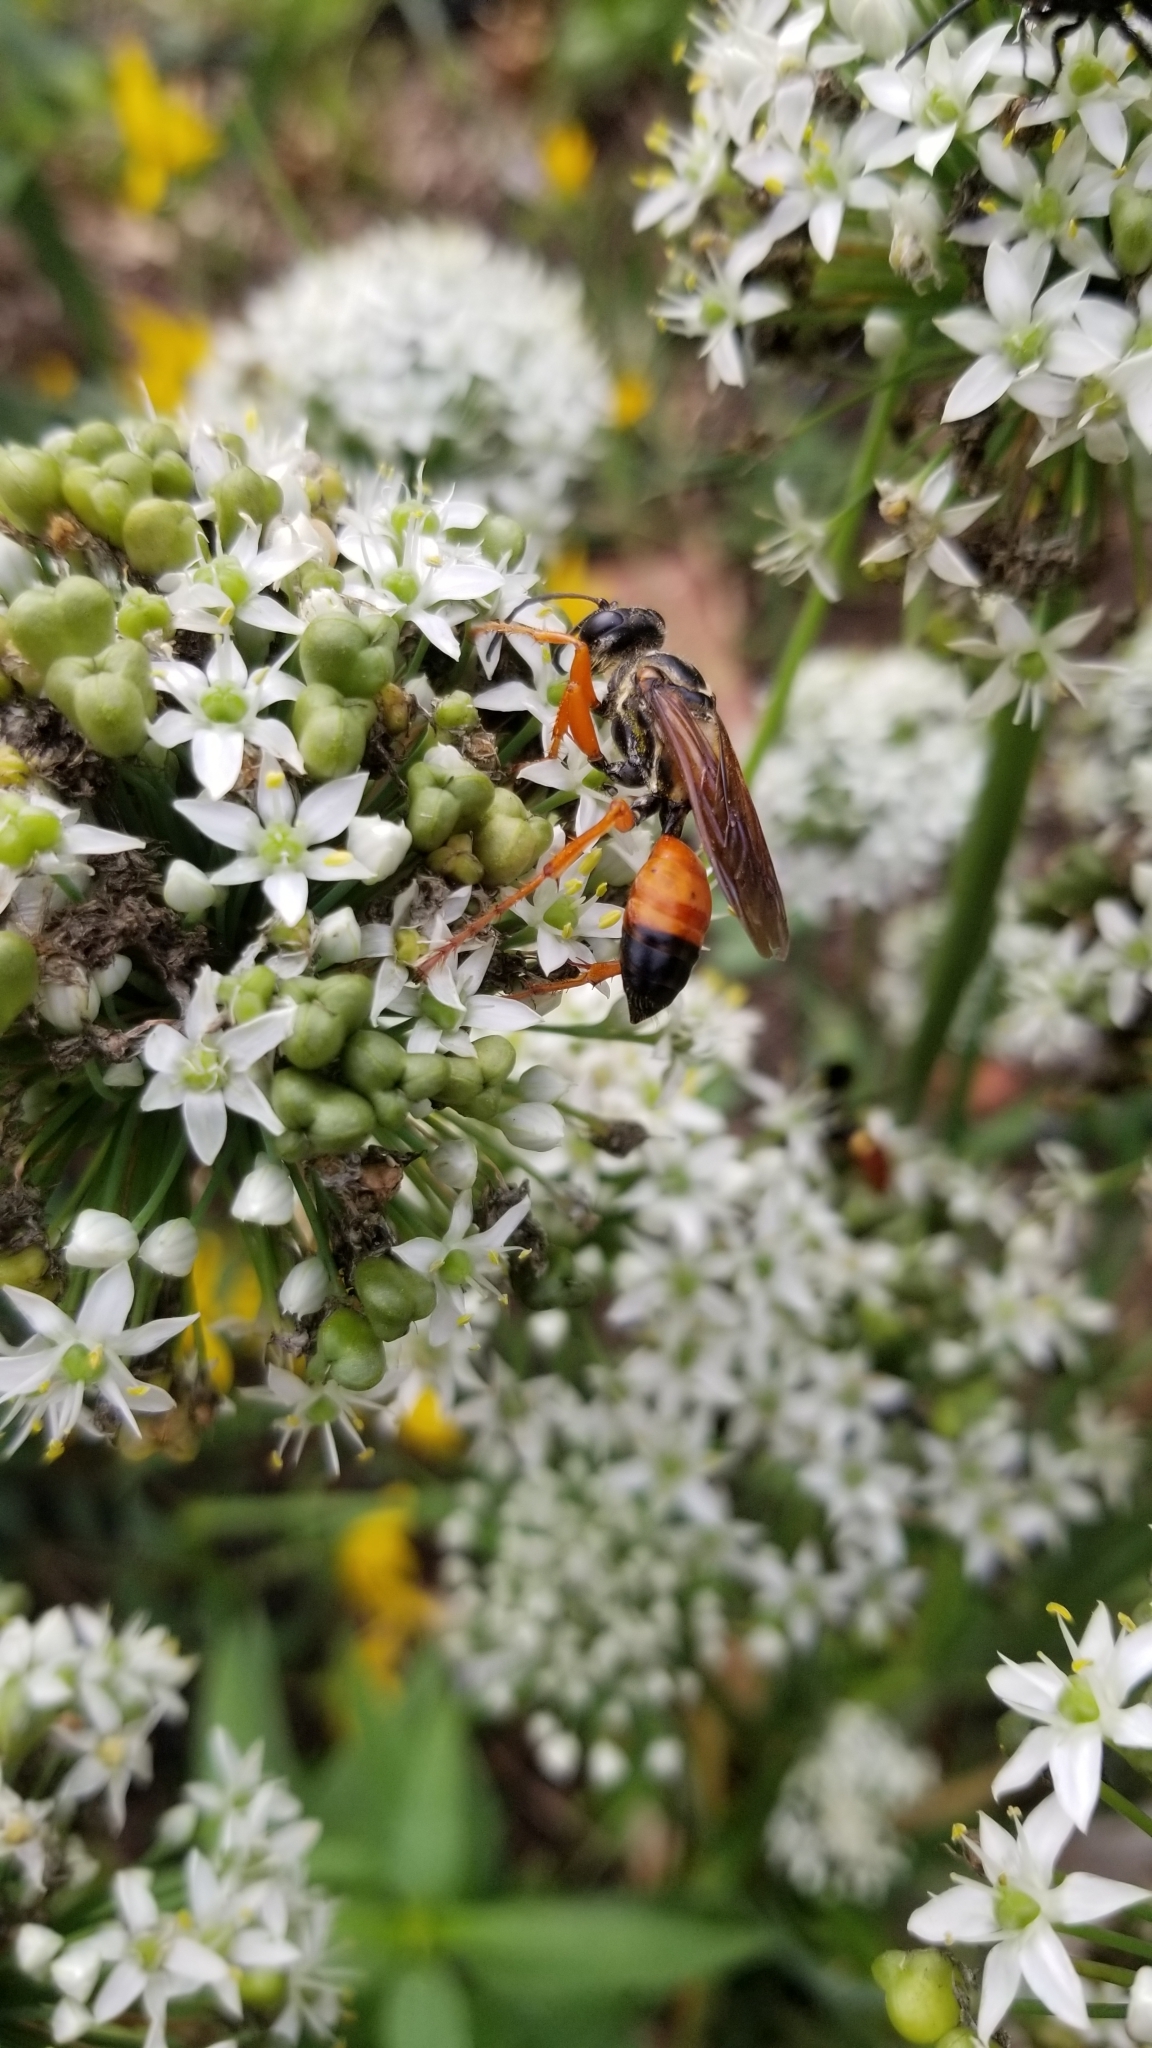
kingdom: Animalia
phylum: Arthropoda
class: Insecta
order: Hymenoptera
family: Sphecidae
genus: Sphex
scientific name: Sphex ichneumoneus
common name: Great golden digger wasp
